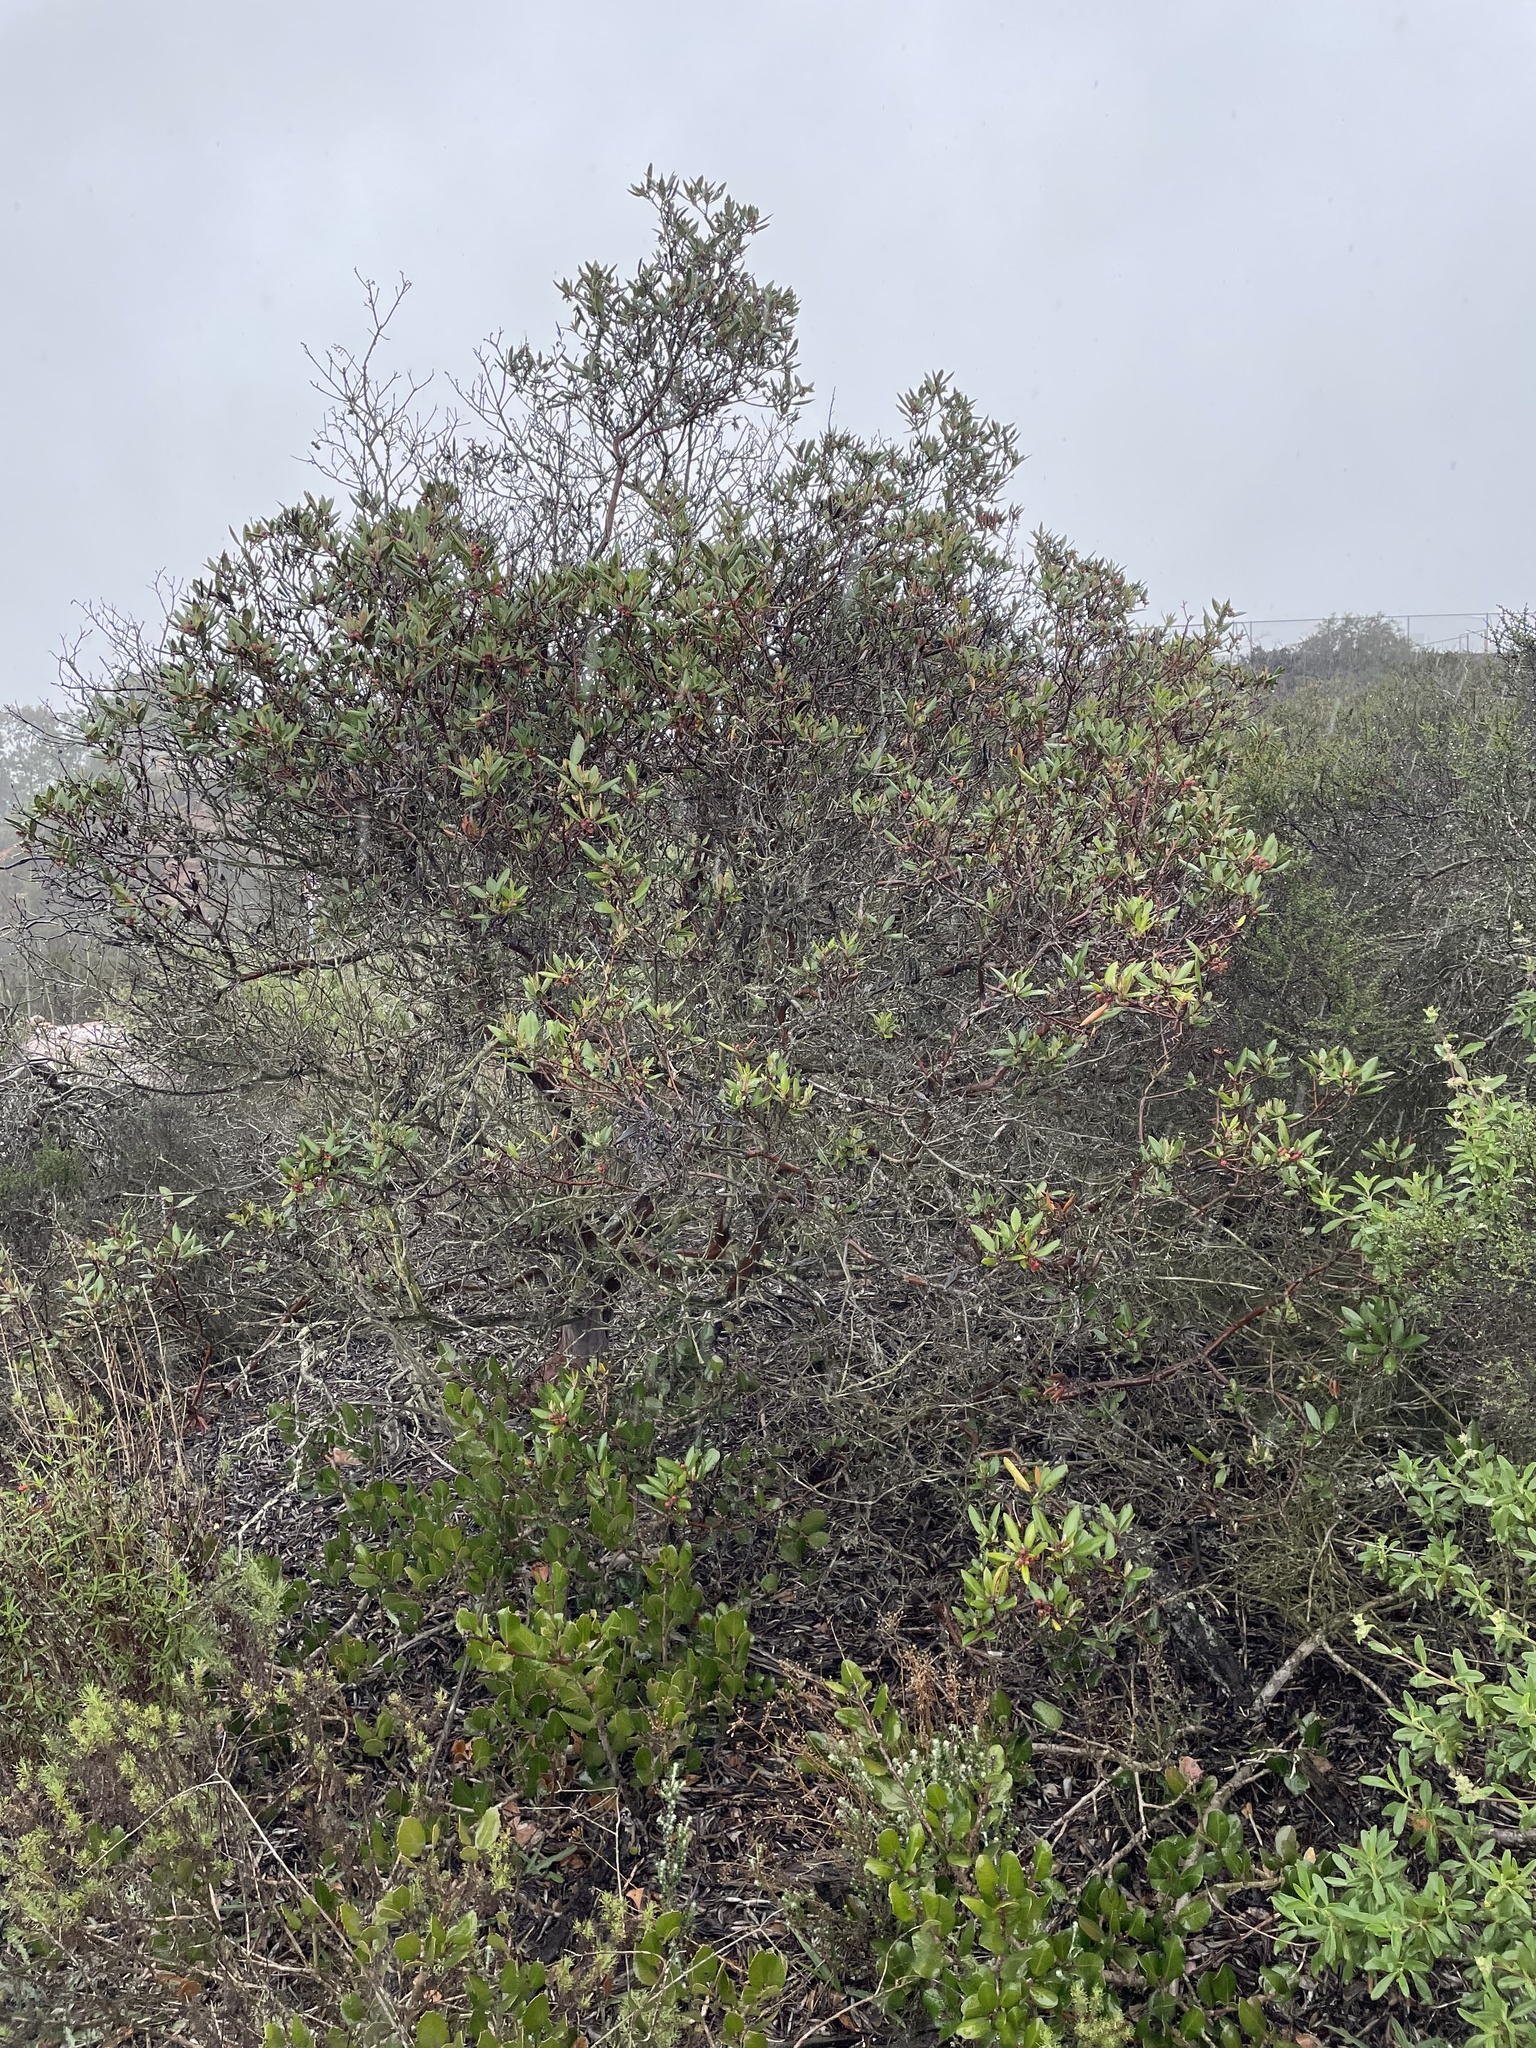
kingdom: Plantae
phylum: Tracheophyta
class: Magnoliopsida
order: Ericales
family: Ericaceae
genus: Arctostaphylos
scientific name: Arctostaphylos bicolor
